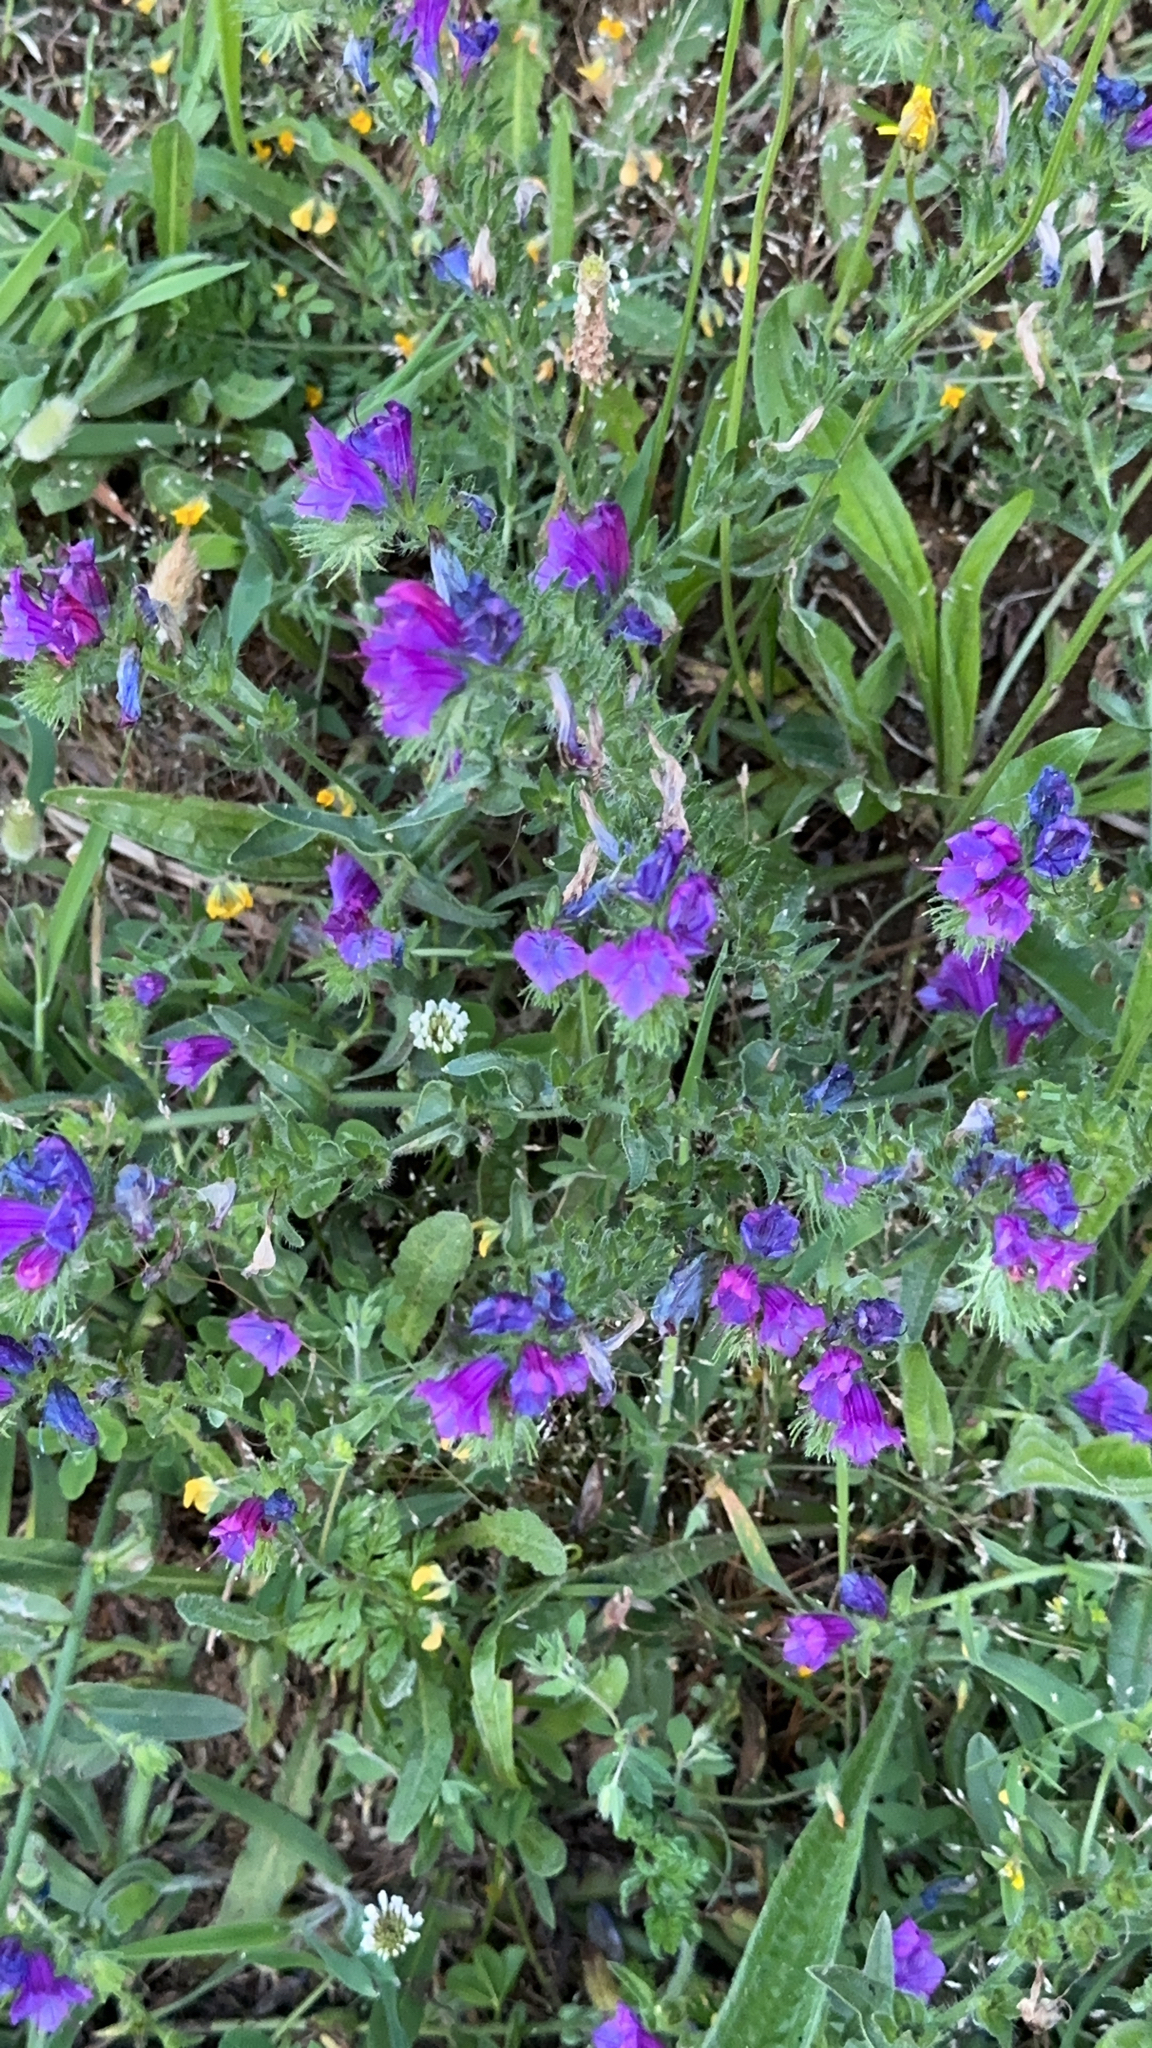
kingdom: Plantae
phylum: Tracheophyta
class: Magnoliopsida
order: Boraginales
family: Boraginaceae
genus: Echium
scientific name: Echium plantagineum
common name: Purple viper's-bugloss
